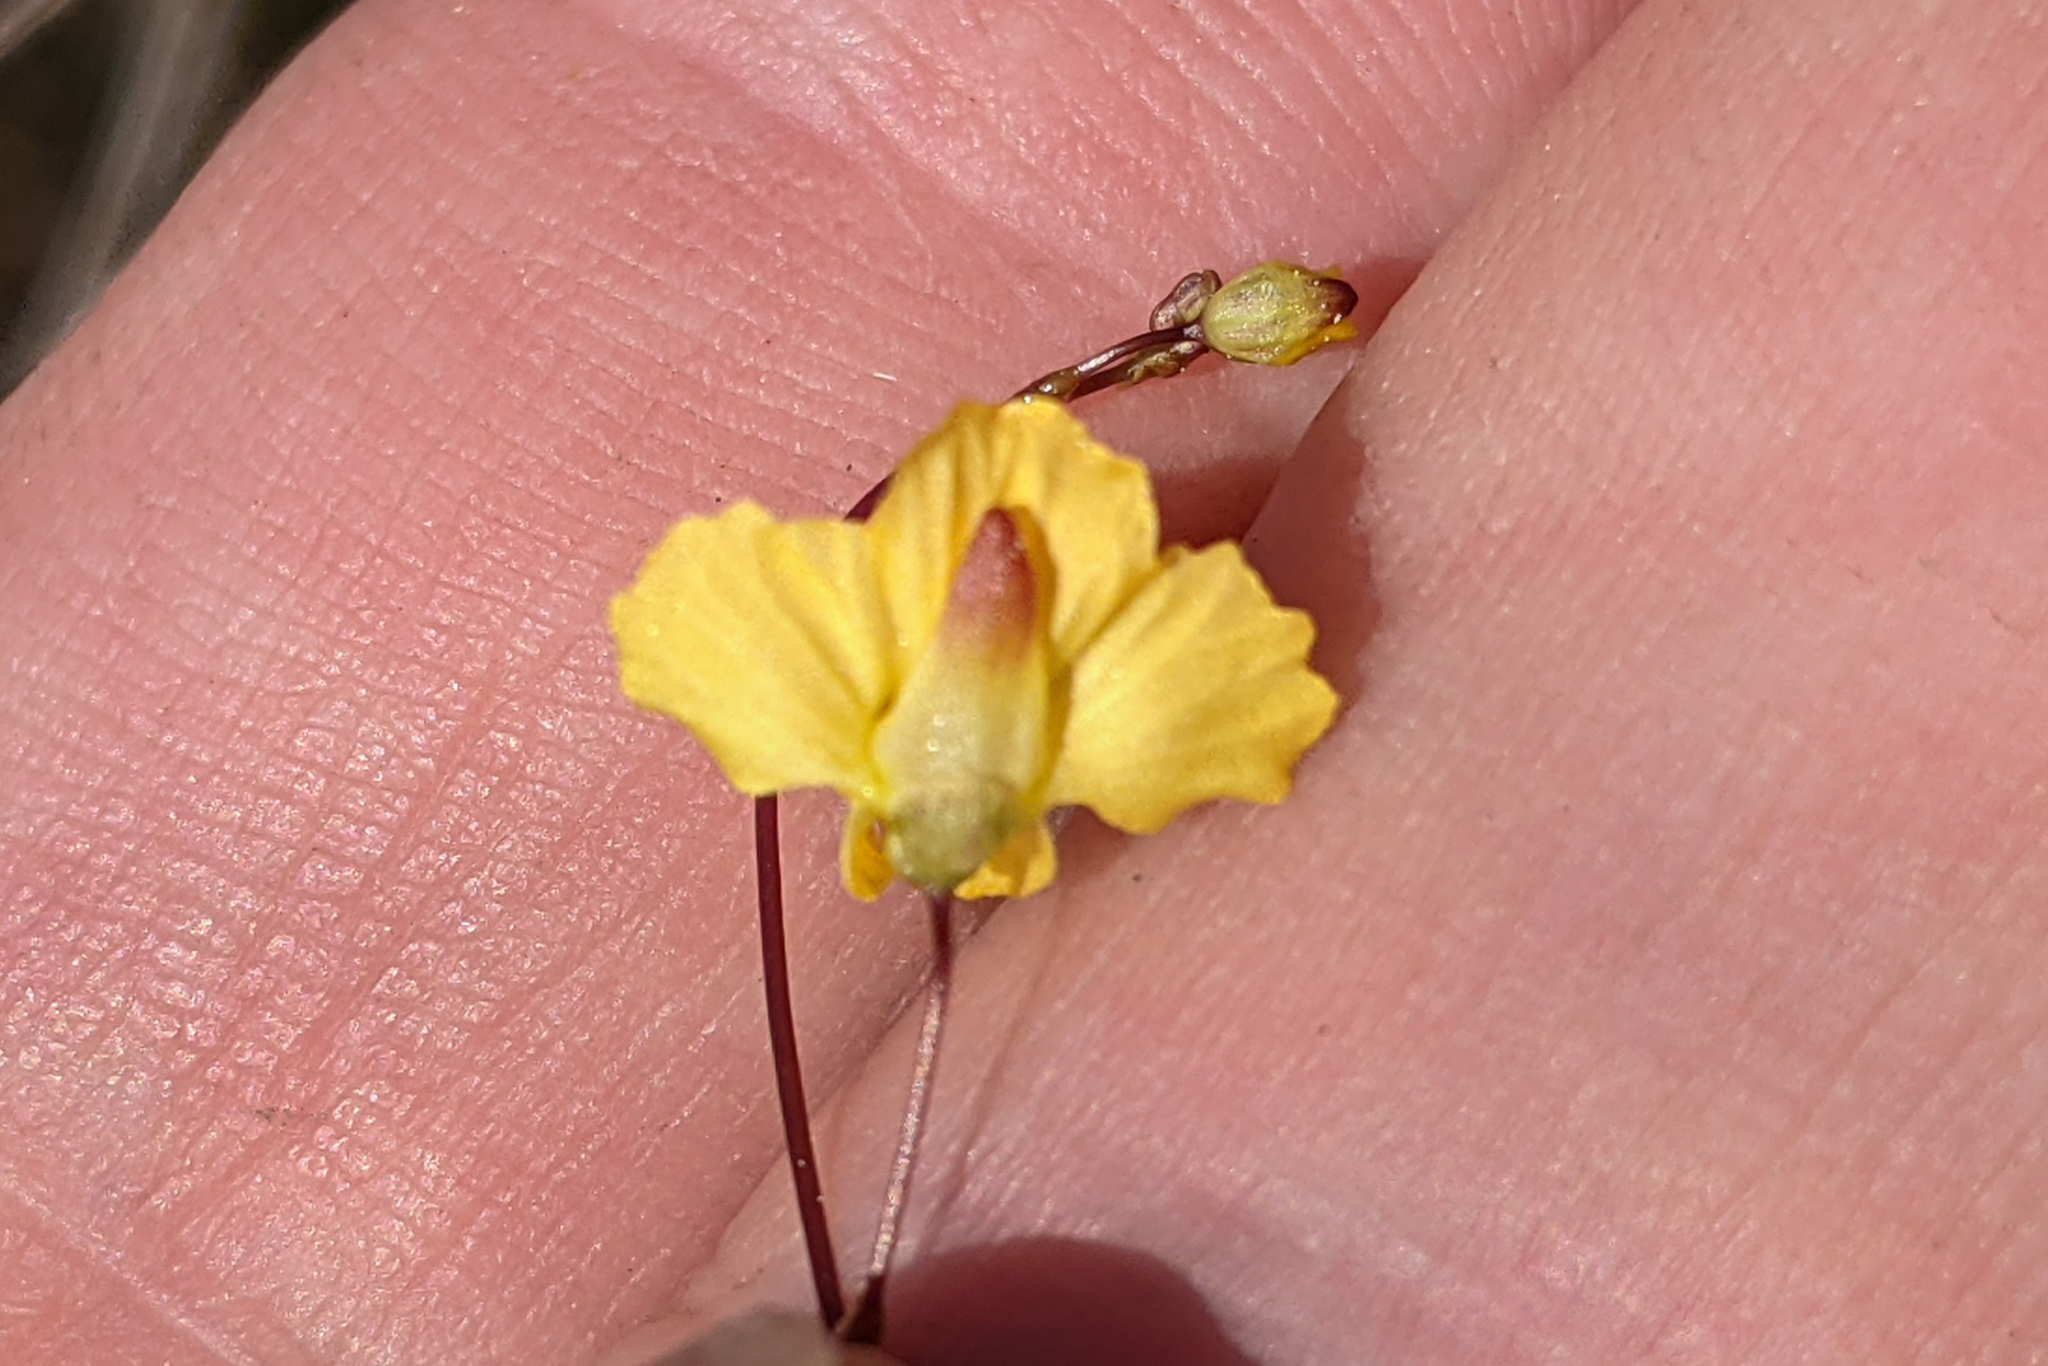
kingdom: Plantae
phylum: Tracheophyta
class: Magnoliopsida
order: Lamiales
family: Lentibulariaceae
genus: Utricularia
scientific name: Utricularia subulata
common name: Tiny bladderwort
